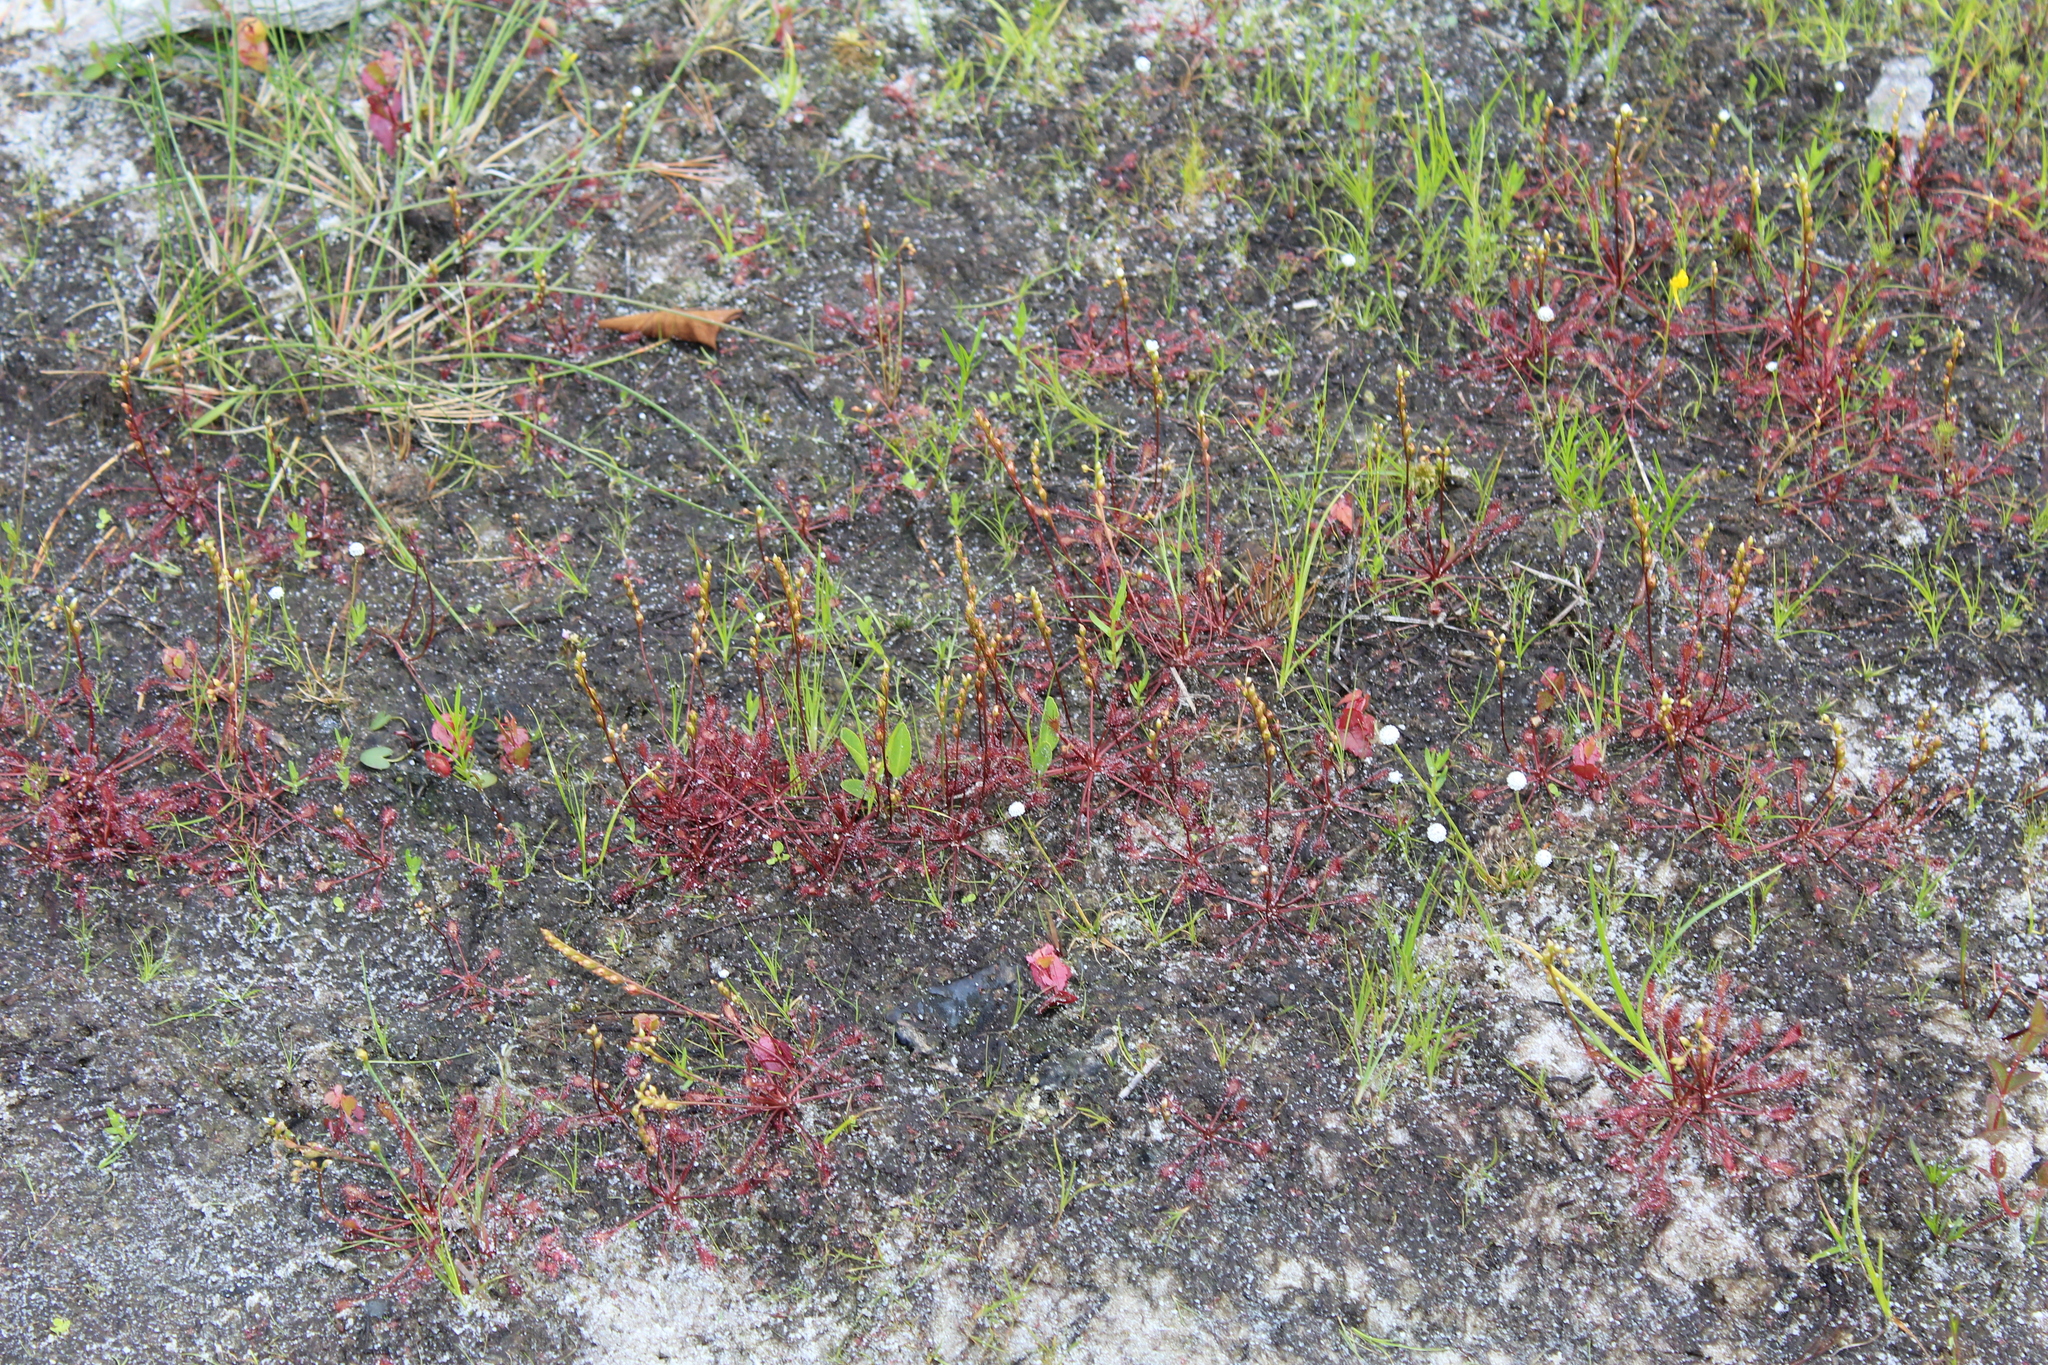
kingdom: Plantae
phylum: Tracheophyta
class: Magnoliopsida
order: Caryophyllales
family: Droseraceae
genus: Drosera
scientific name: Drosera intermedia
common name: Oblong-leaved sundew
